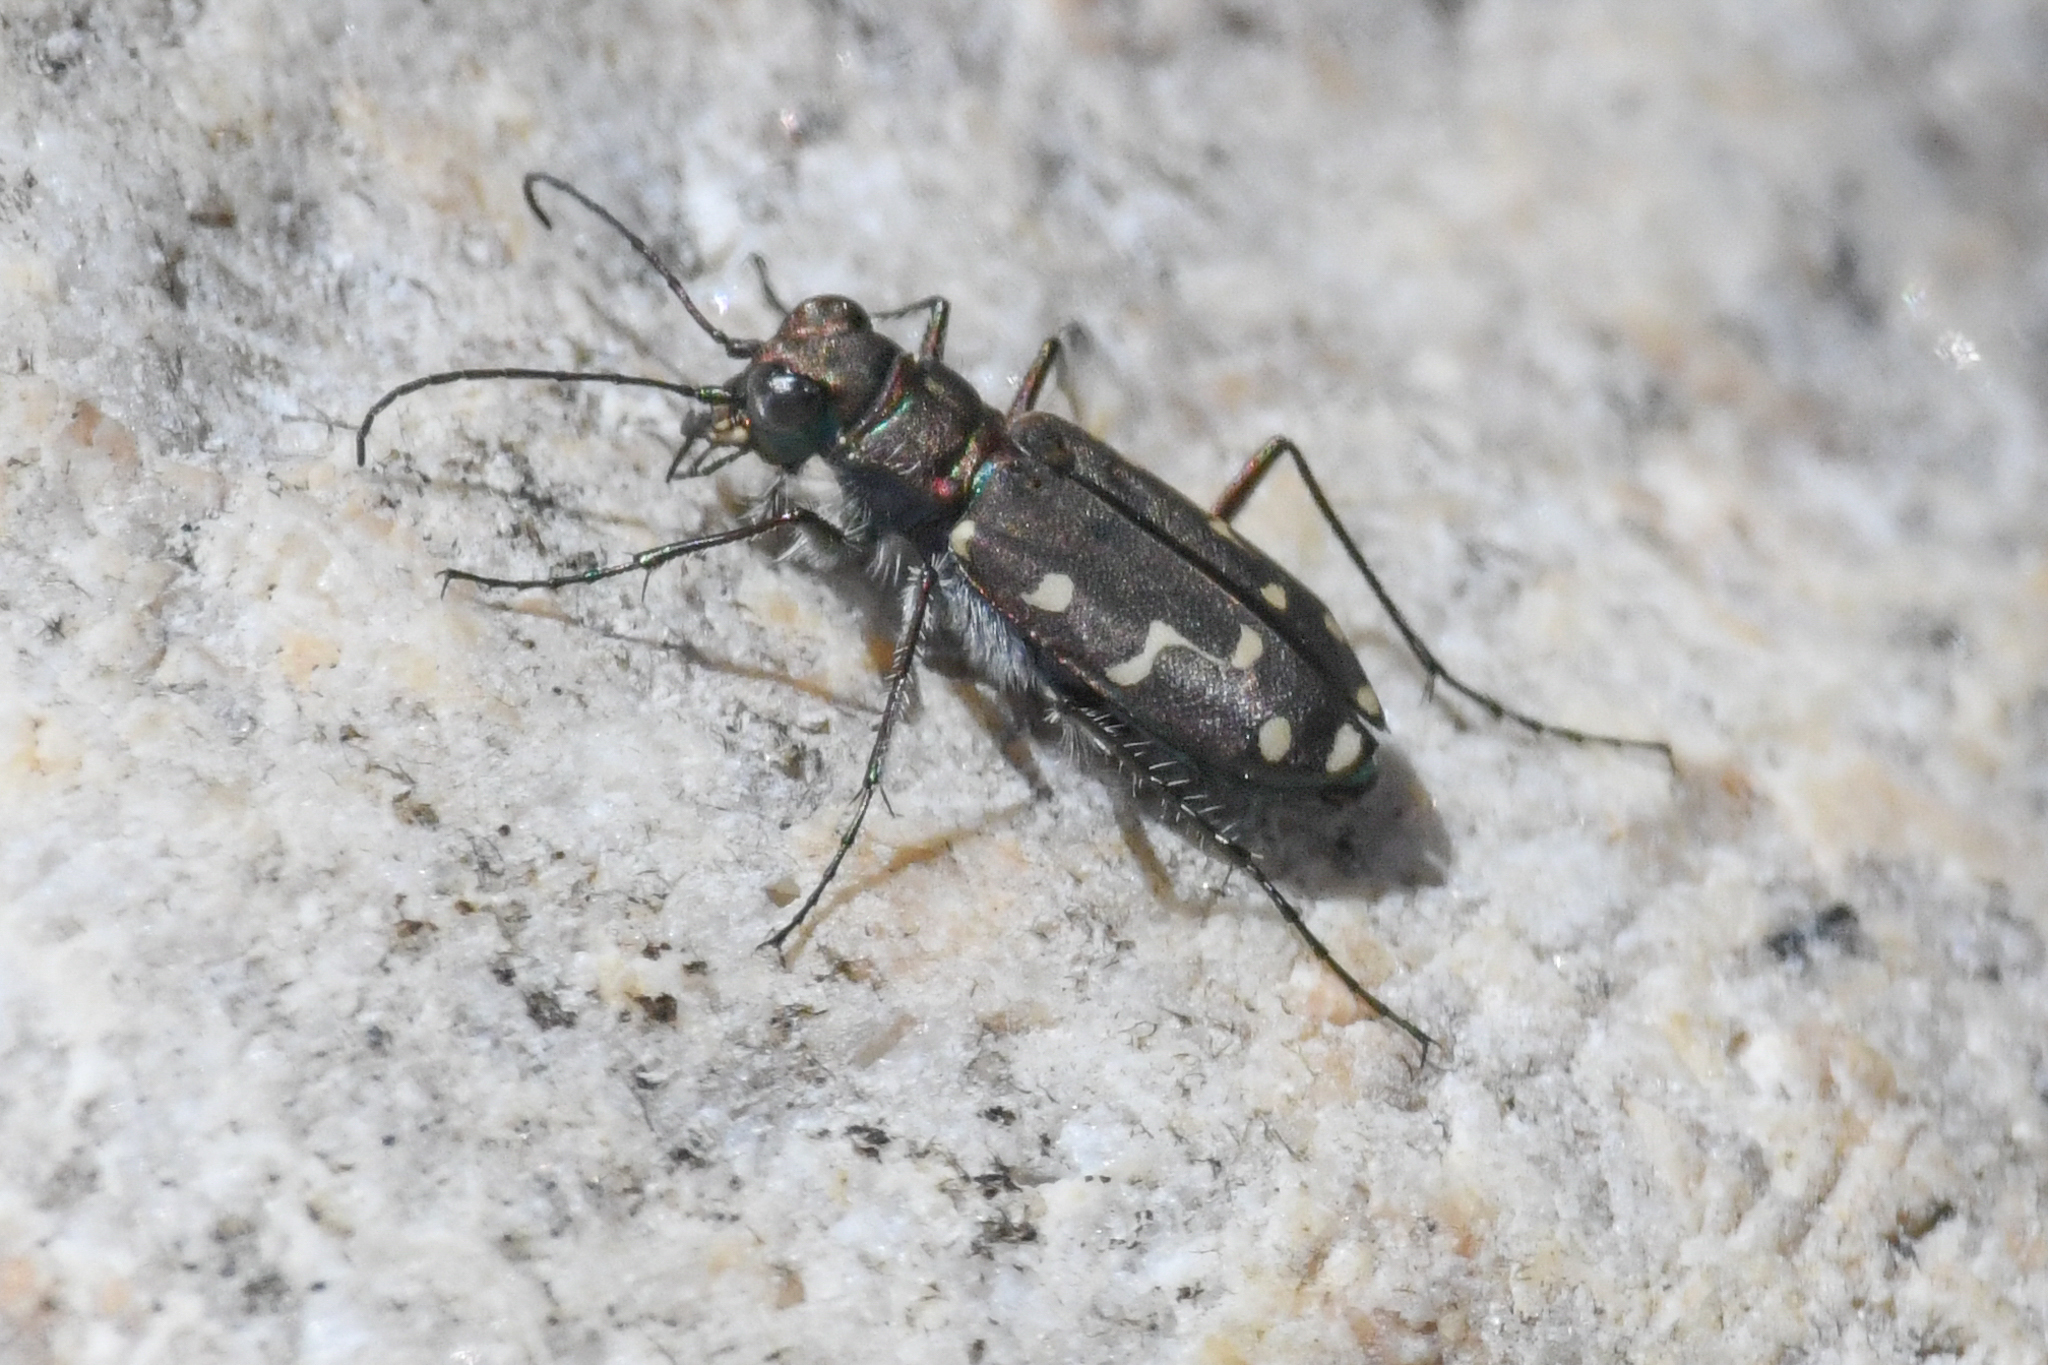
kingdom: Animalia
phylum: Arthropoda
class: Insecta
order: Coleoptera
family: Carabidae
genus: Cicindela
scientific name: Cicindela oregona
